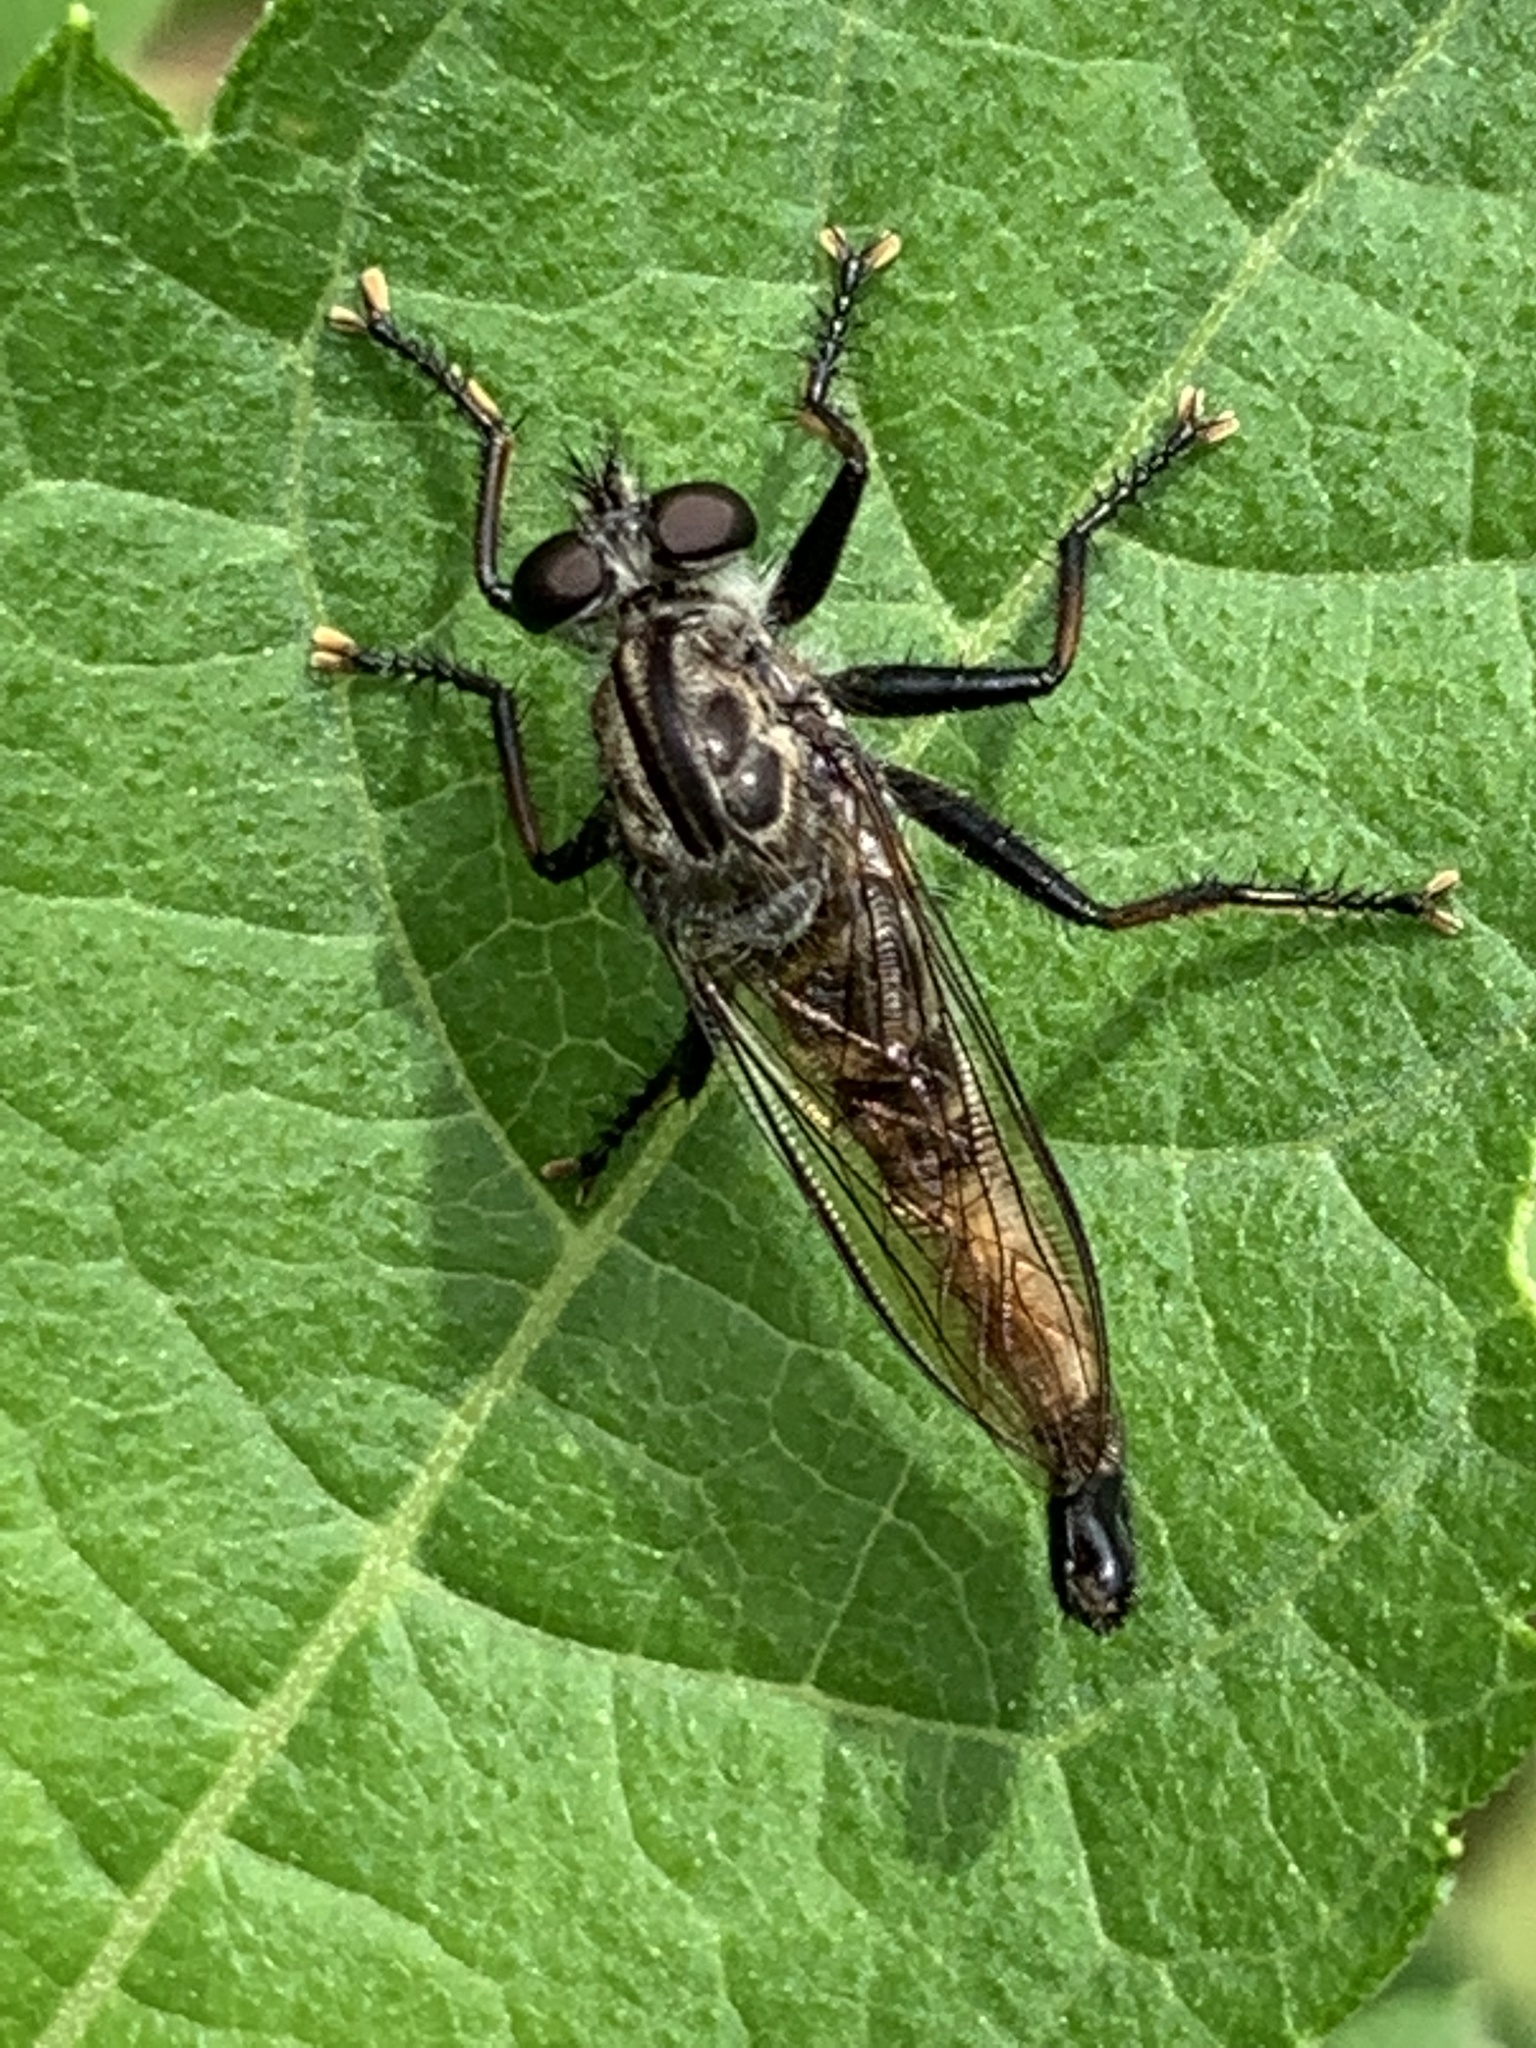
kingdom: Animalia
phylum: Arthropoda
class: Insecta
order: Diptera
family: Asilidae
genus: Efferia
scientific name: Efferia aestuans
